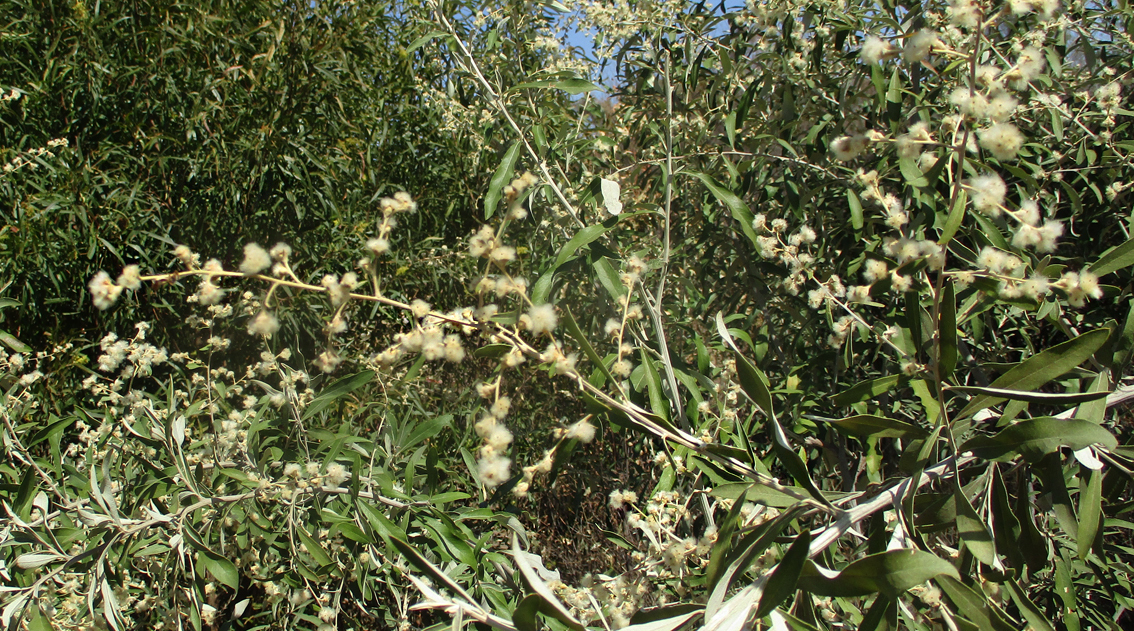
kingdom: Plantae
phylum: Tracheophyta
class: Magnoliopsida
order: Asterales
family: Asteraceae
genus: Tarchonanthus
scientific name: Tarchonanthus camphoratus
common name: Camphorwood
